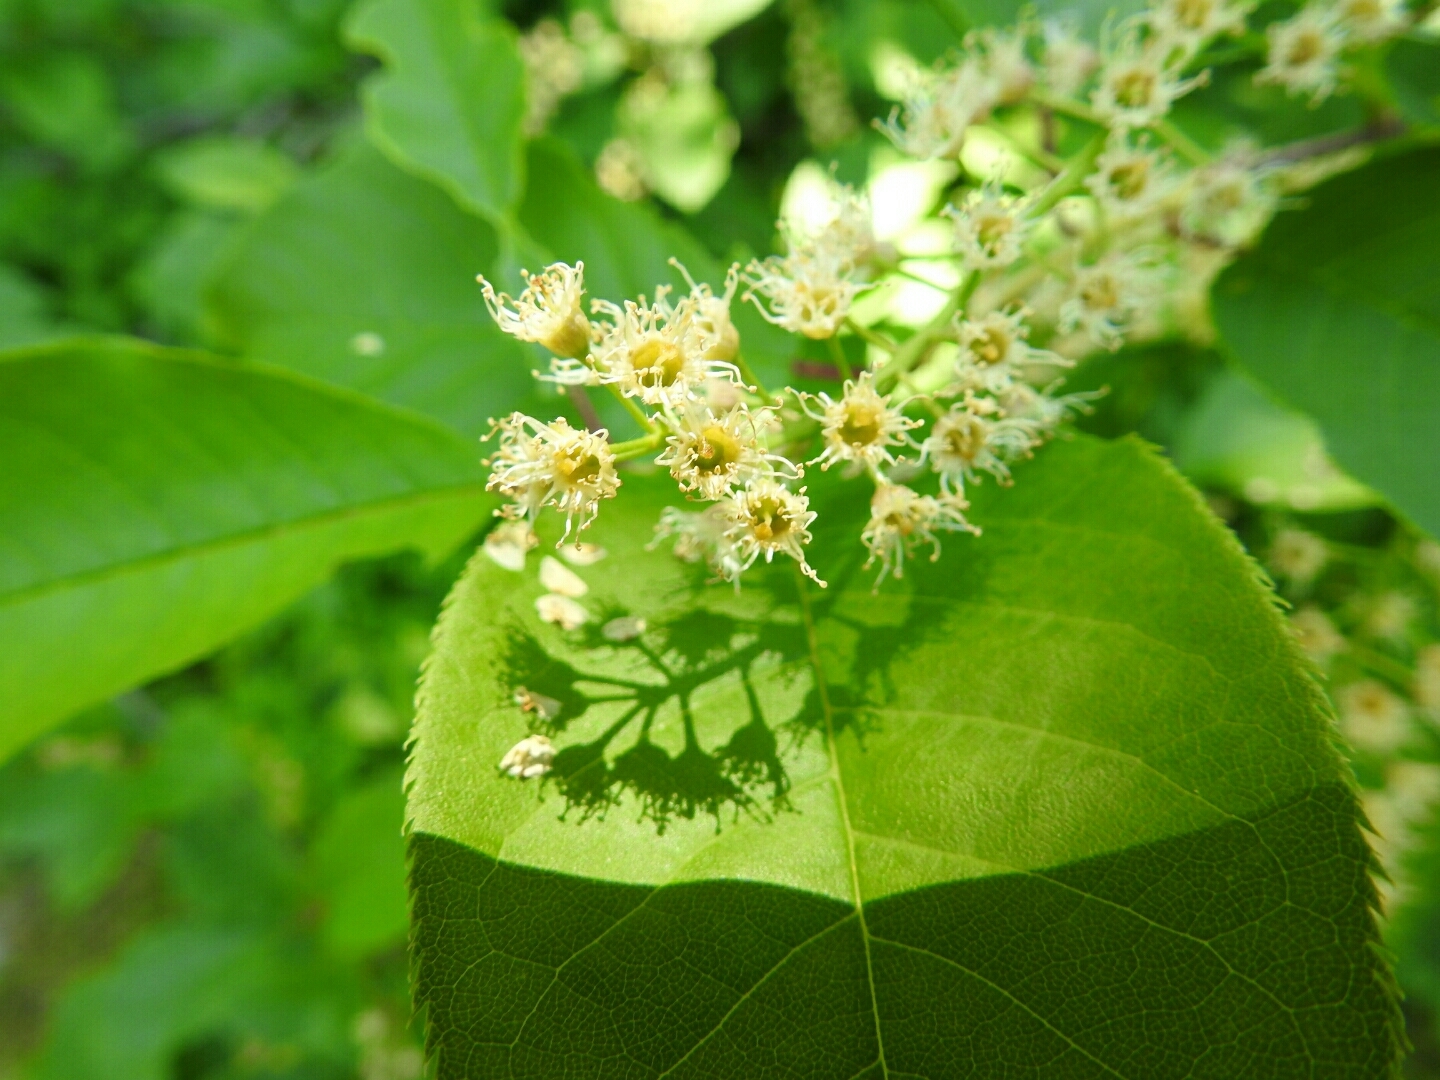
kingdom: Plantae
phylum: Tracheophyta
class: Magnoliopsida
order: Rosales
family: Rosaceae
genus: Prunus
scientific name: Prunus virginiana
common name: Chokecherry
